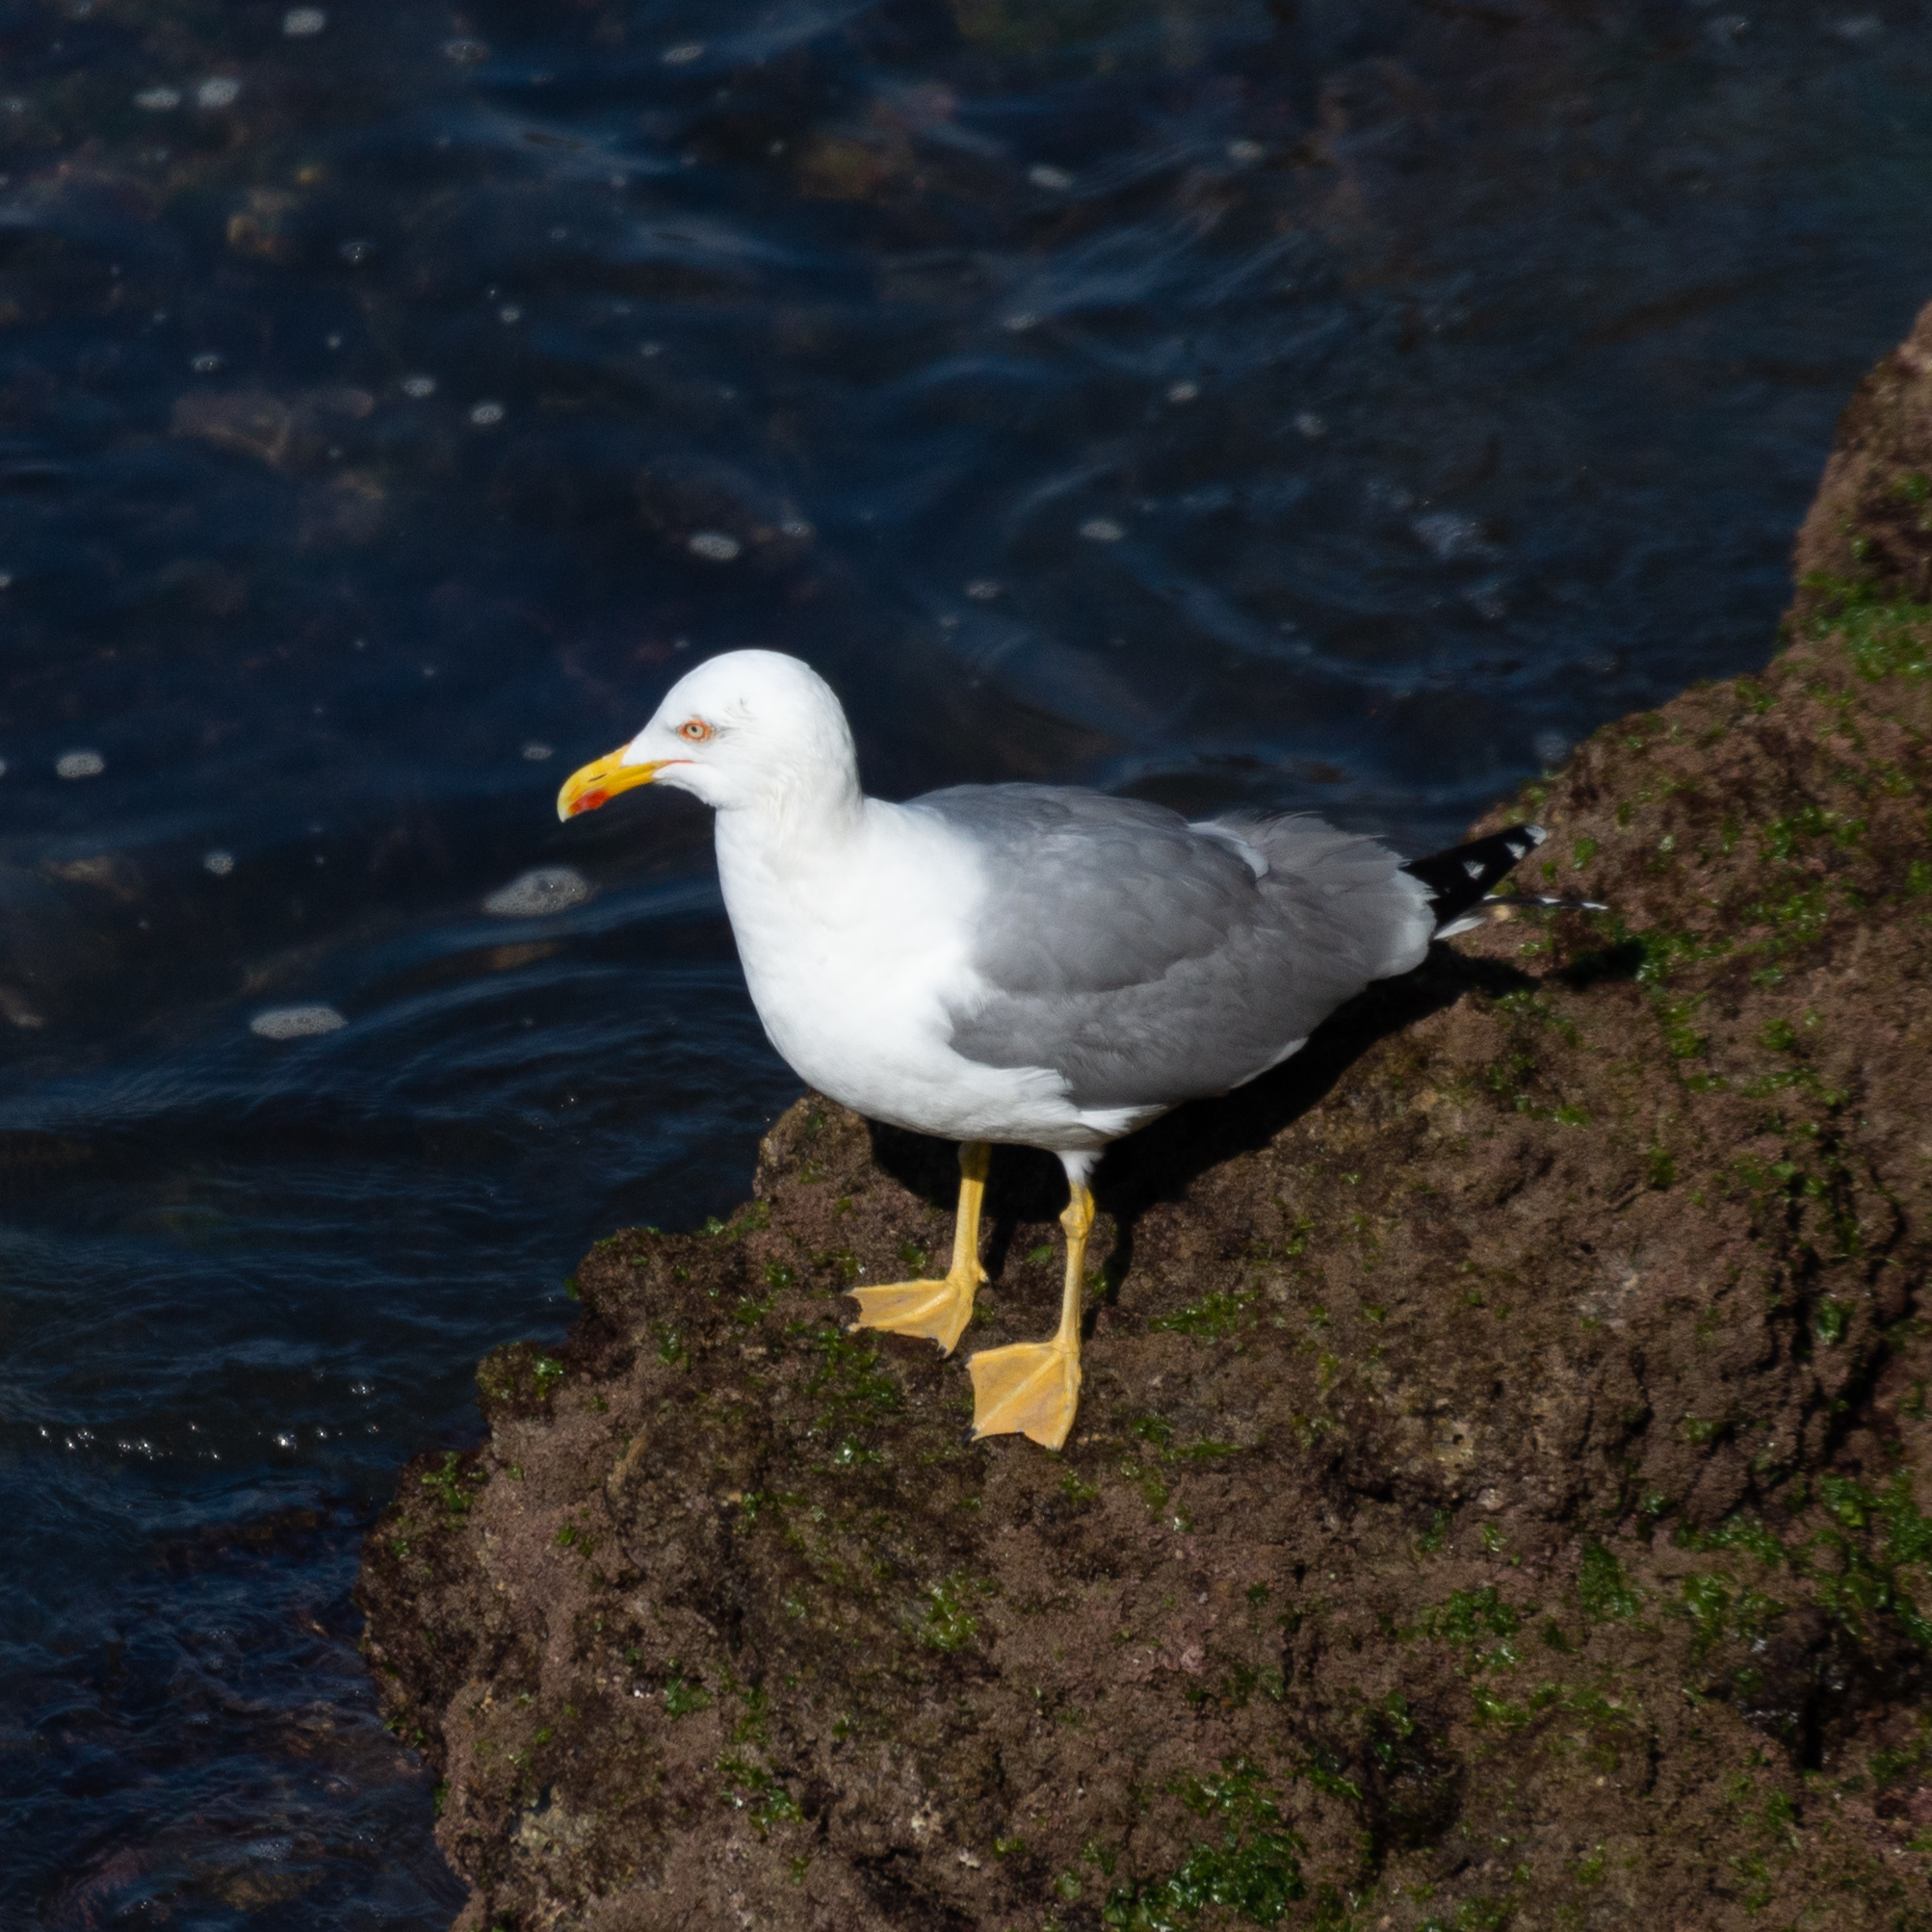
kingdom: Animalia
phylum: Chordata
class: Aves
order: Charadriiformes
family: Laridae
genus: Larus
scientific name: Larus michahellis
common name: Yellow-legged gull
